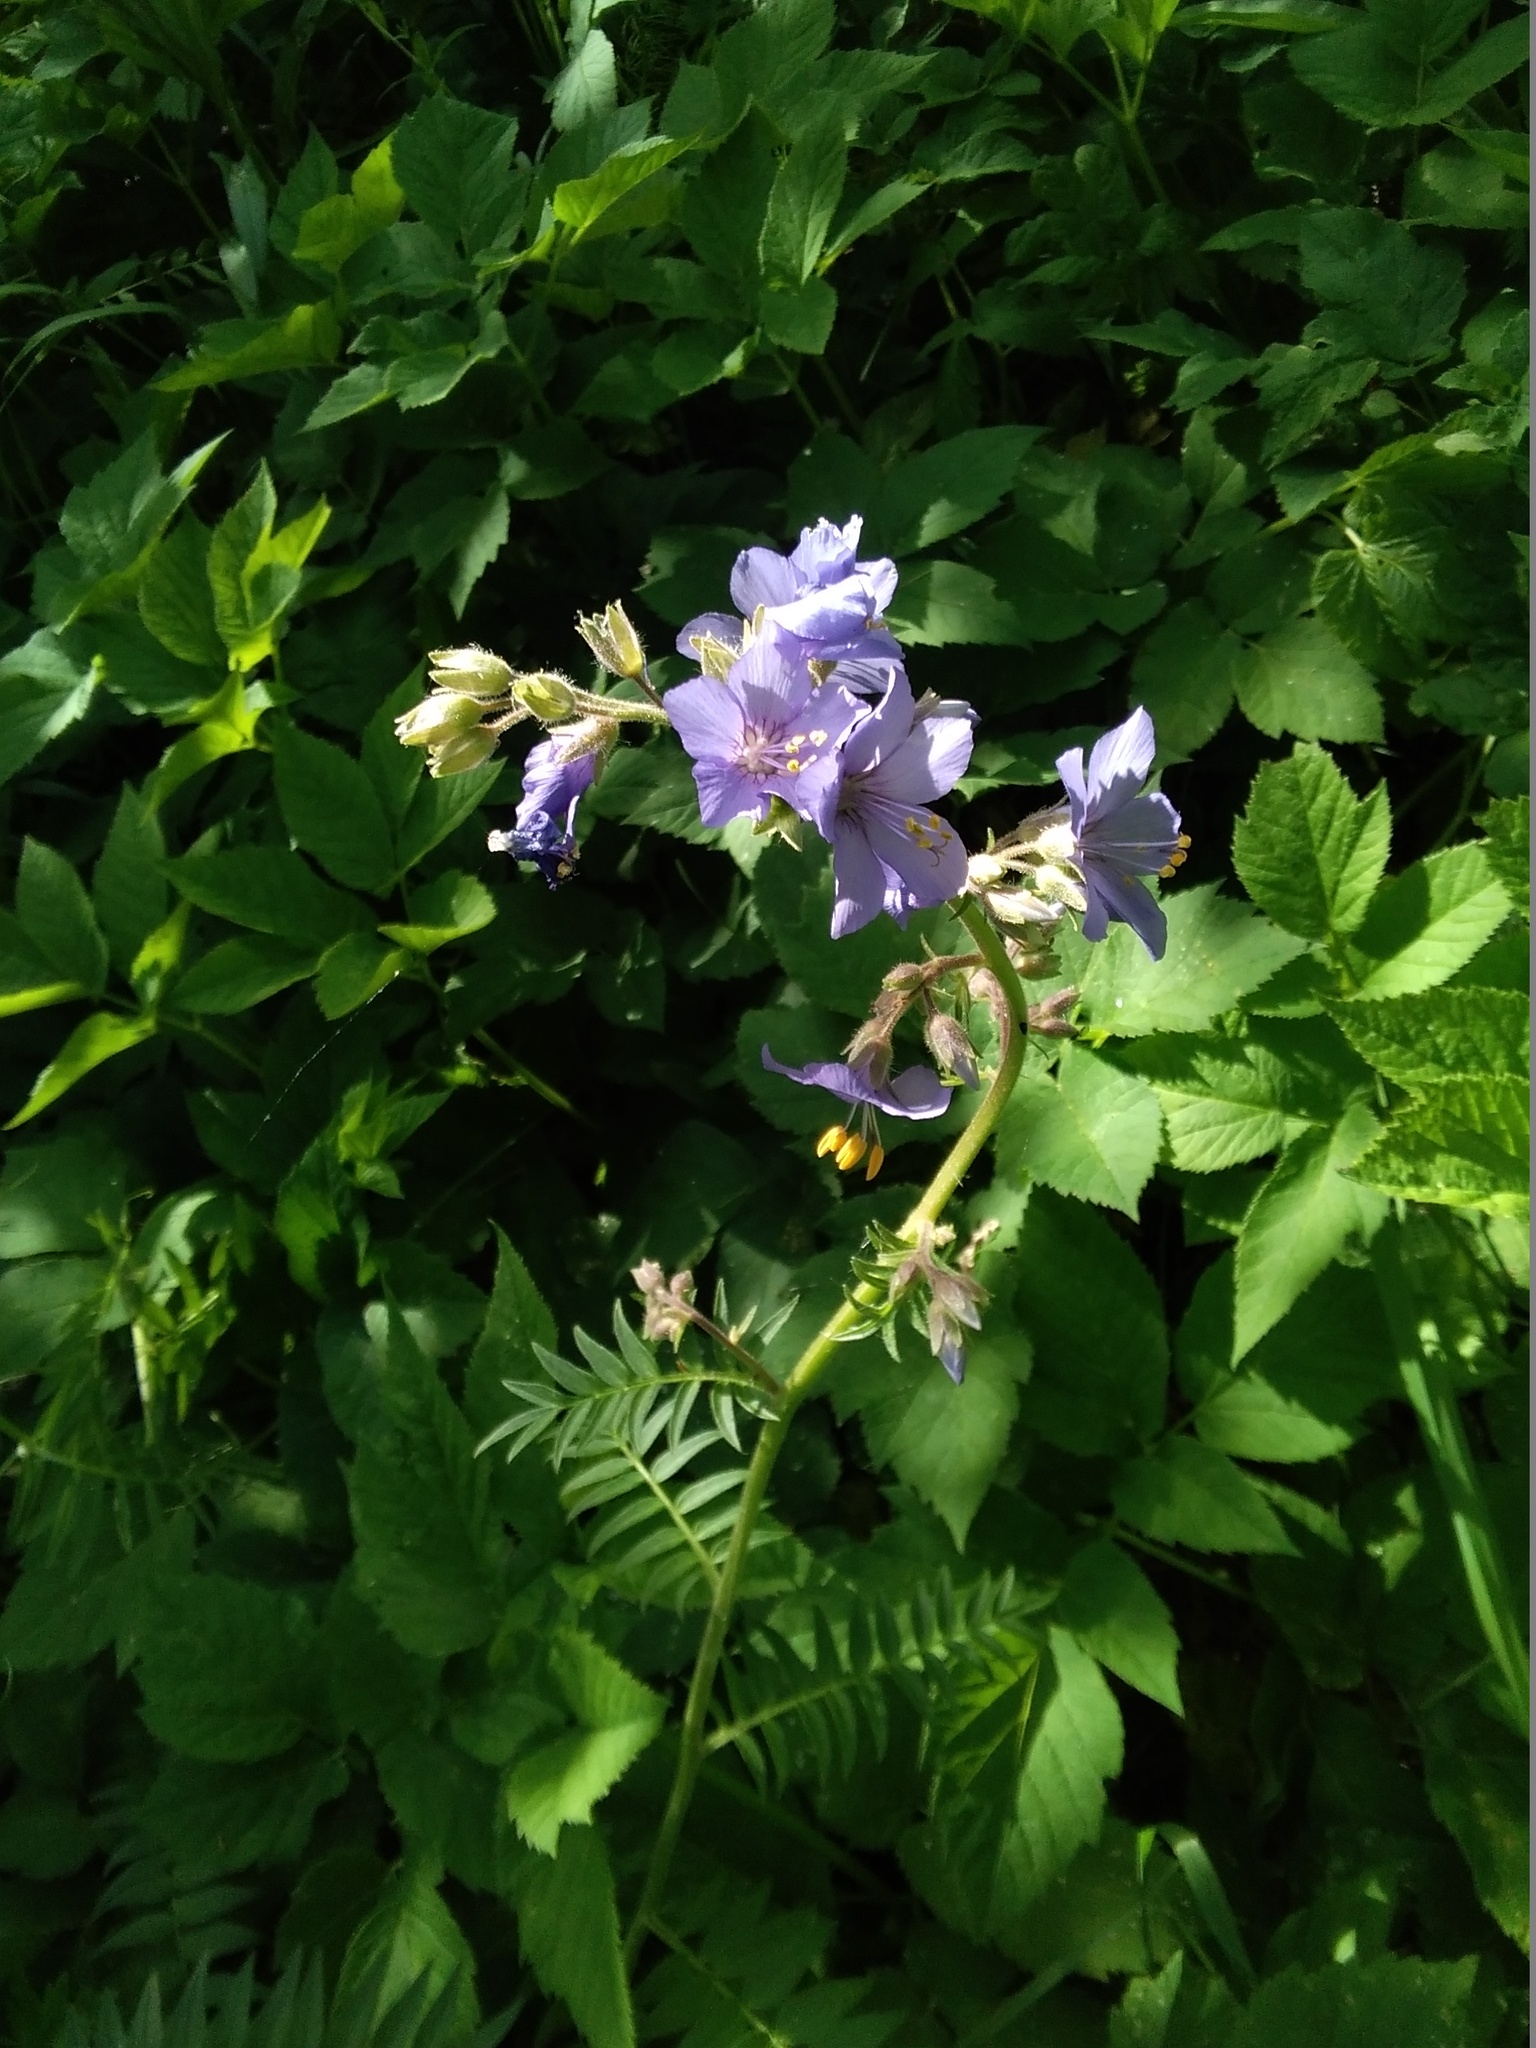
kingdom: Plantae
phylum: Tracheophyta
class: Magnoliopsida
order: Ericales
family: Polemoniaceae
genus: Polemonium
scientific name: Polemonium caeruleum
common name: Jacob's-ladder
